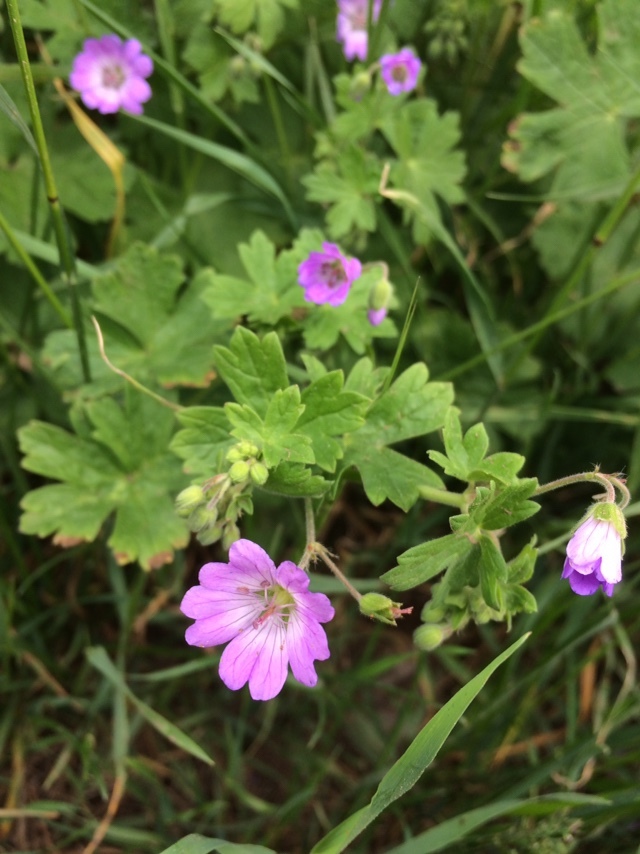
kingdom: Plantae
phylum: Tracheophyta
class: Magnoliopsida
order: Geraniales
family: Geraniaceae
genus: Geranium
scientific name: Geranium pyrenaicum
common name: Hedgerow crane's-bill
